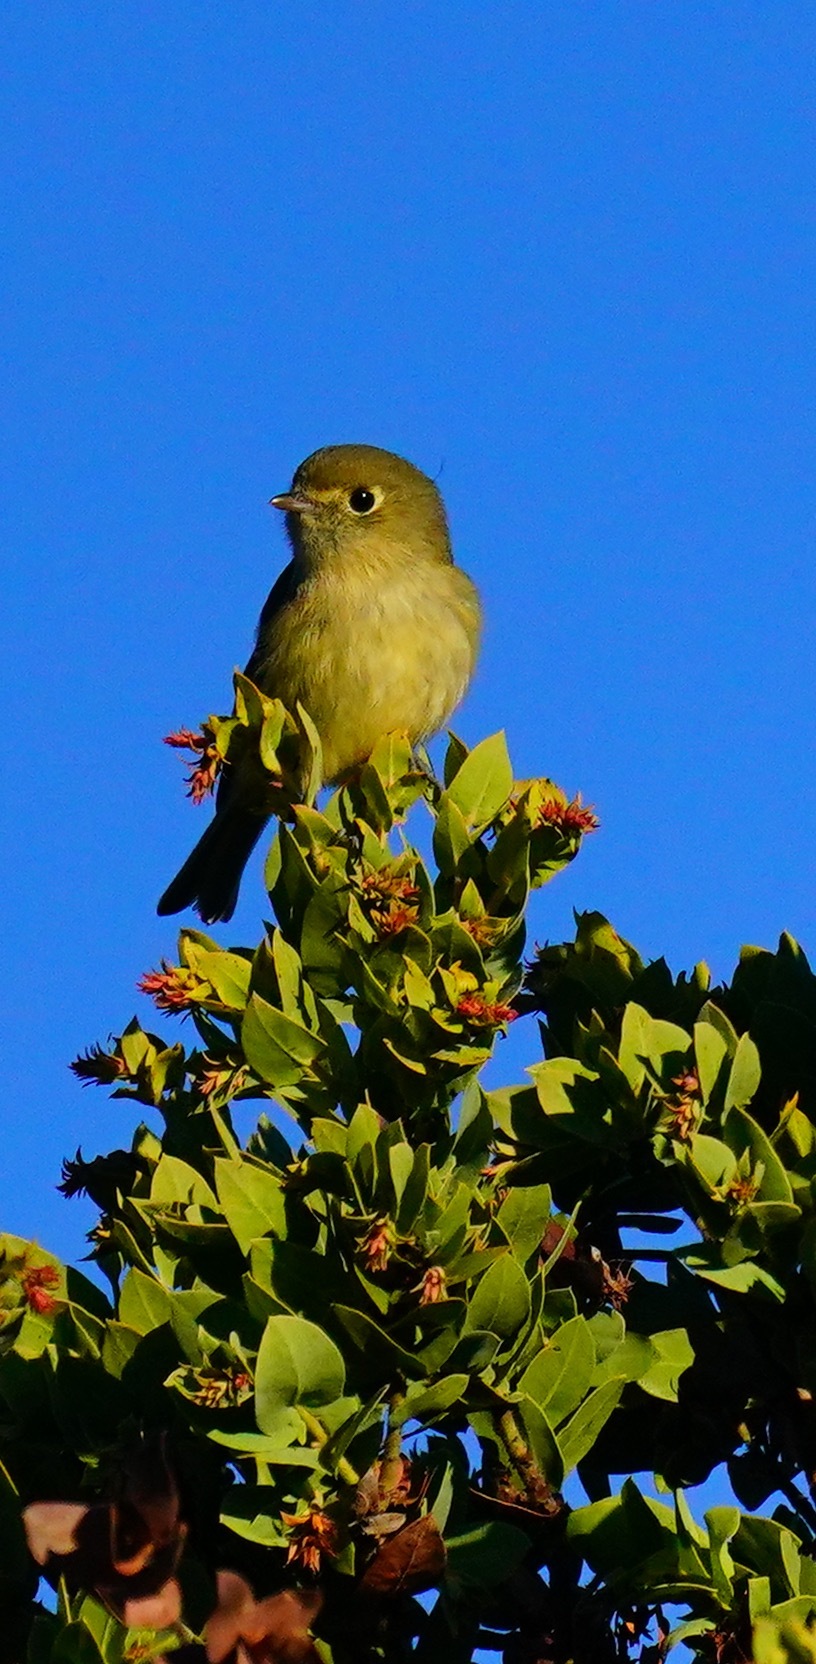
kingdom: Animalia
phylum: Chordata
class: Aves
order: Passeriformes
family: Vireonidae
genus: Vireo
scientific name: Vireo huttoni
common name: Hutton's vireo
